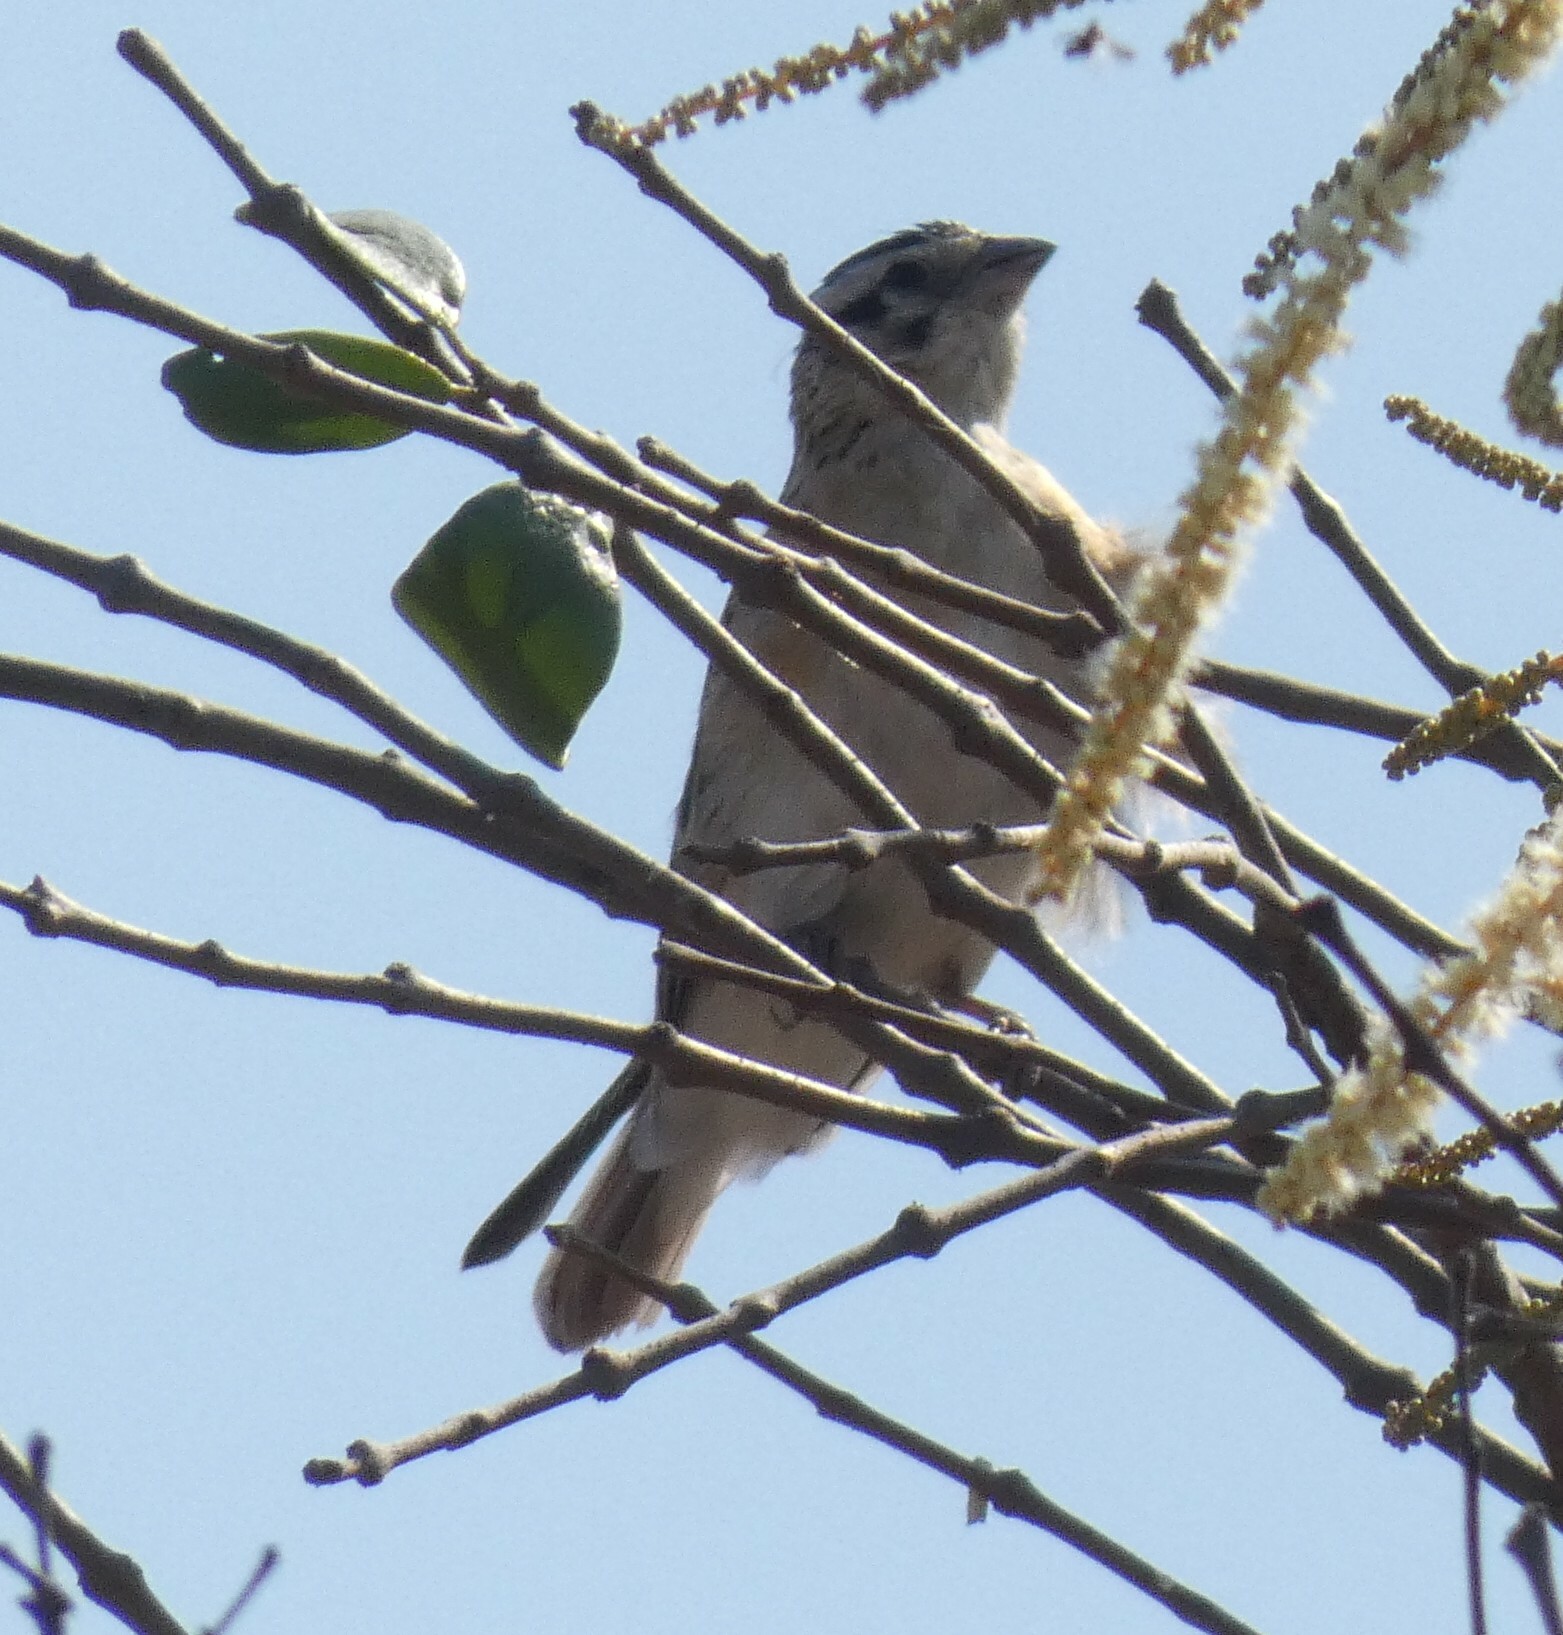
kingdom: Animalia
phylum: Chordata
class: Aves
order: Passeriformes
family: Viduidae
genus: Vidua
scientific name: Vidua paradisaea
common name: Long-tailed paradise whydah
